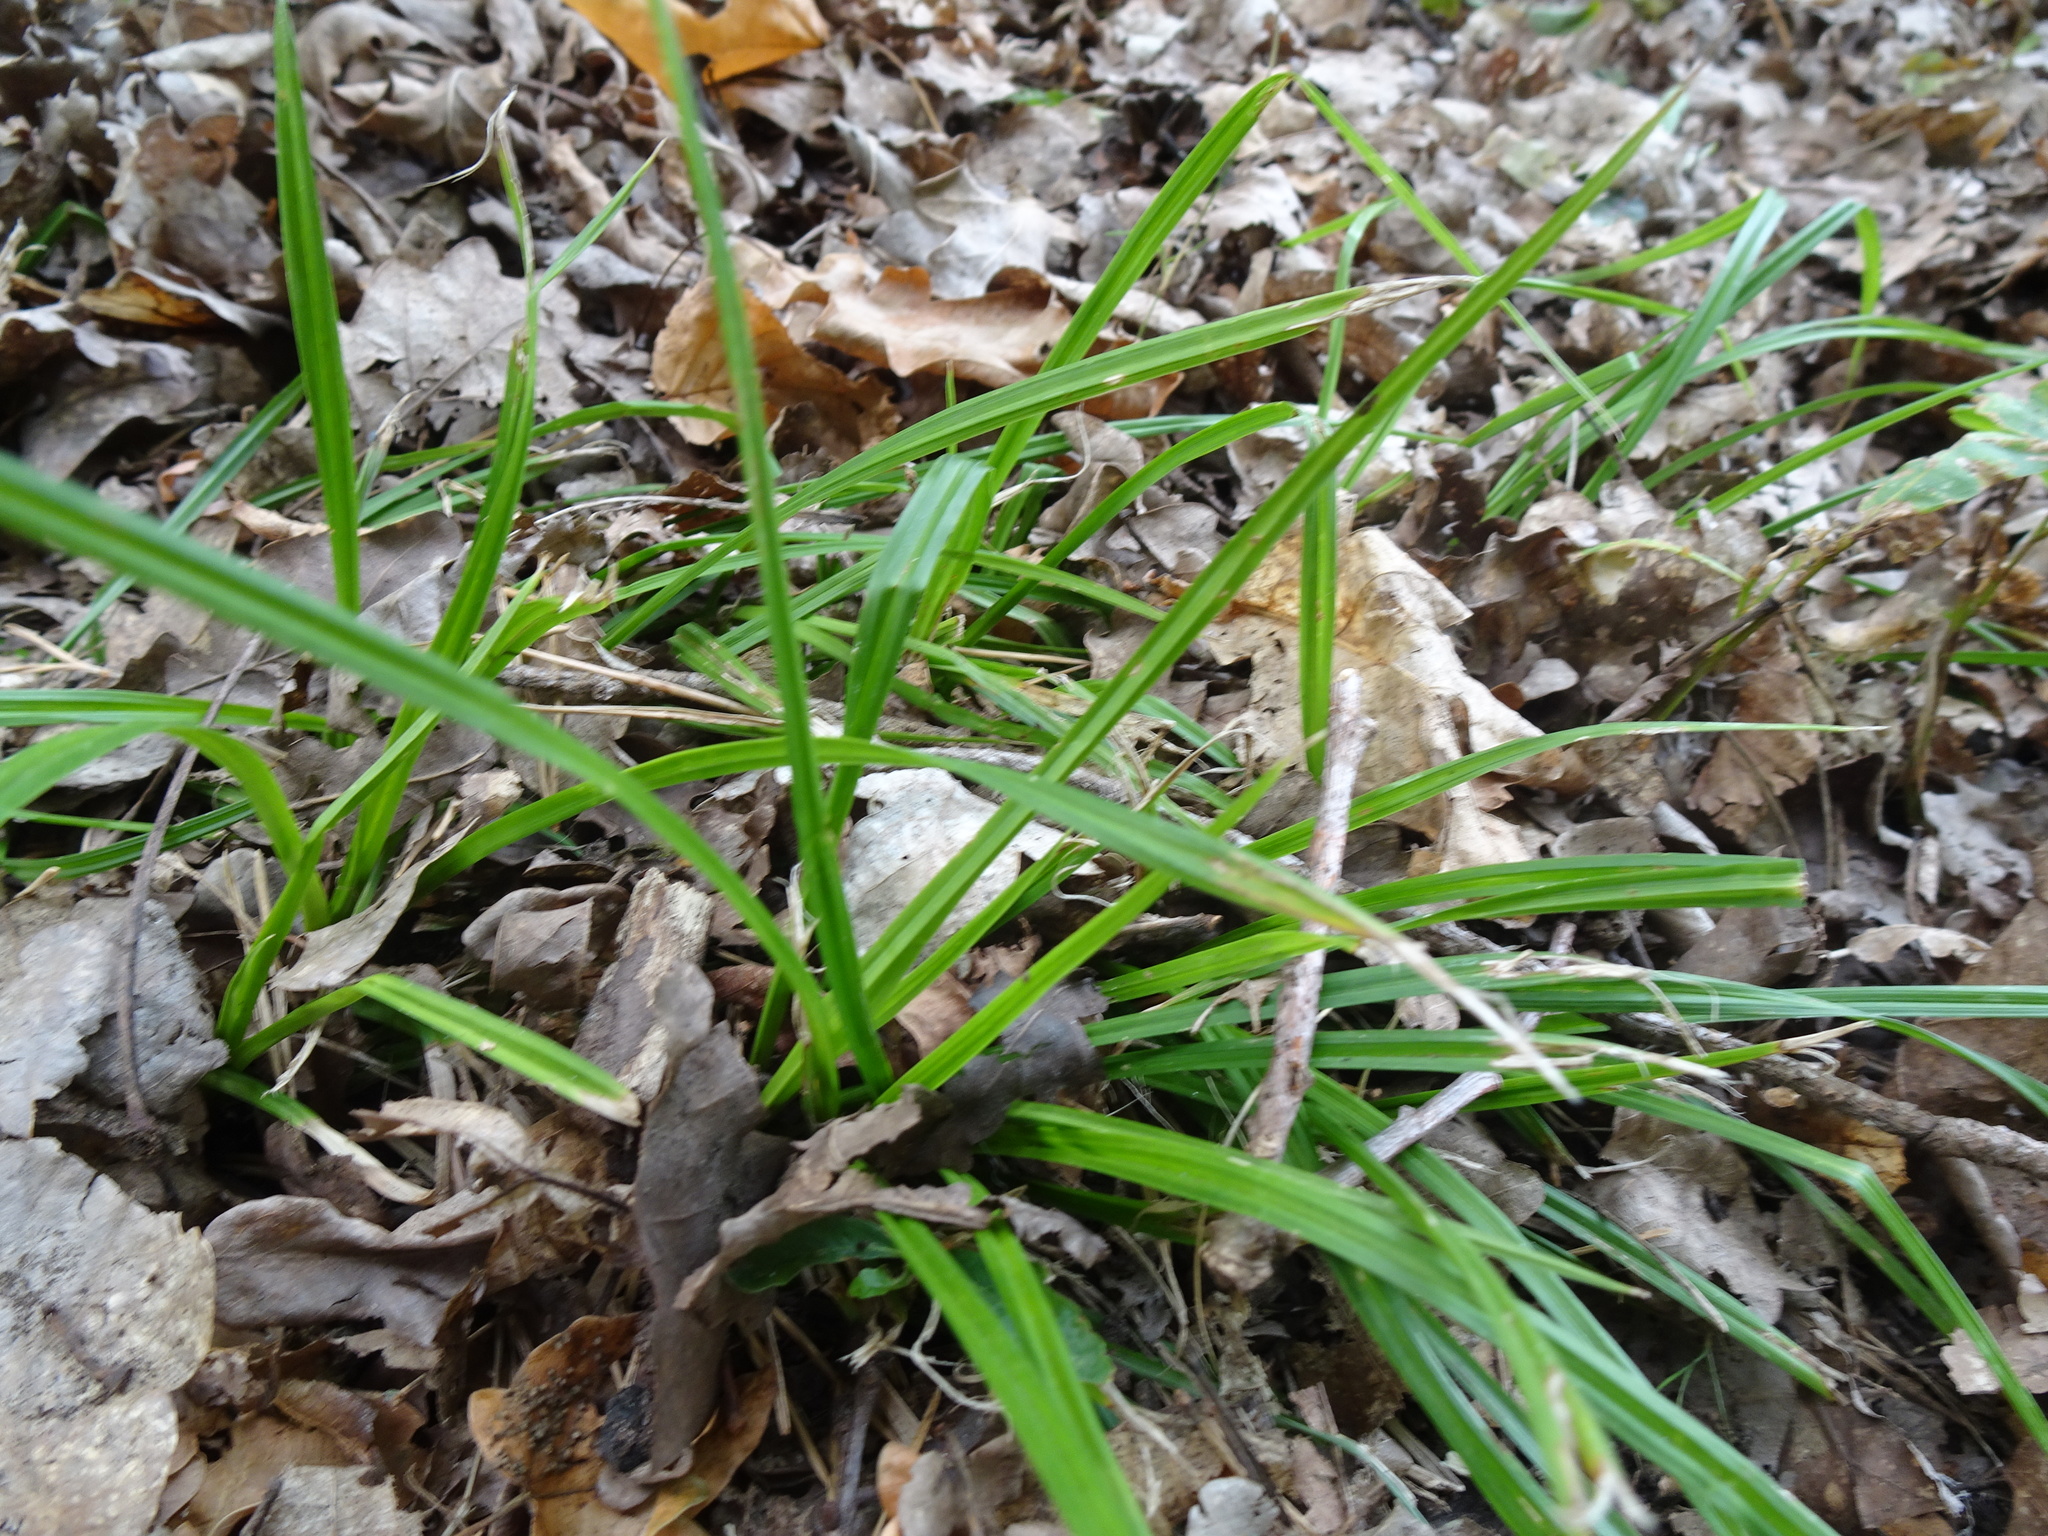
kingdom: Plantae
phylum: Tracheophyta
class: Liliopsida
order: Poales
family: Cyperaceae
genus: Carex
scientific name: Carex sylvatica
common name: Wood-sedge
